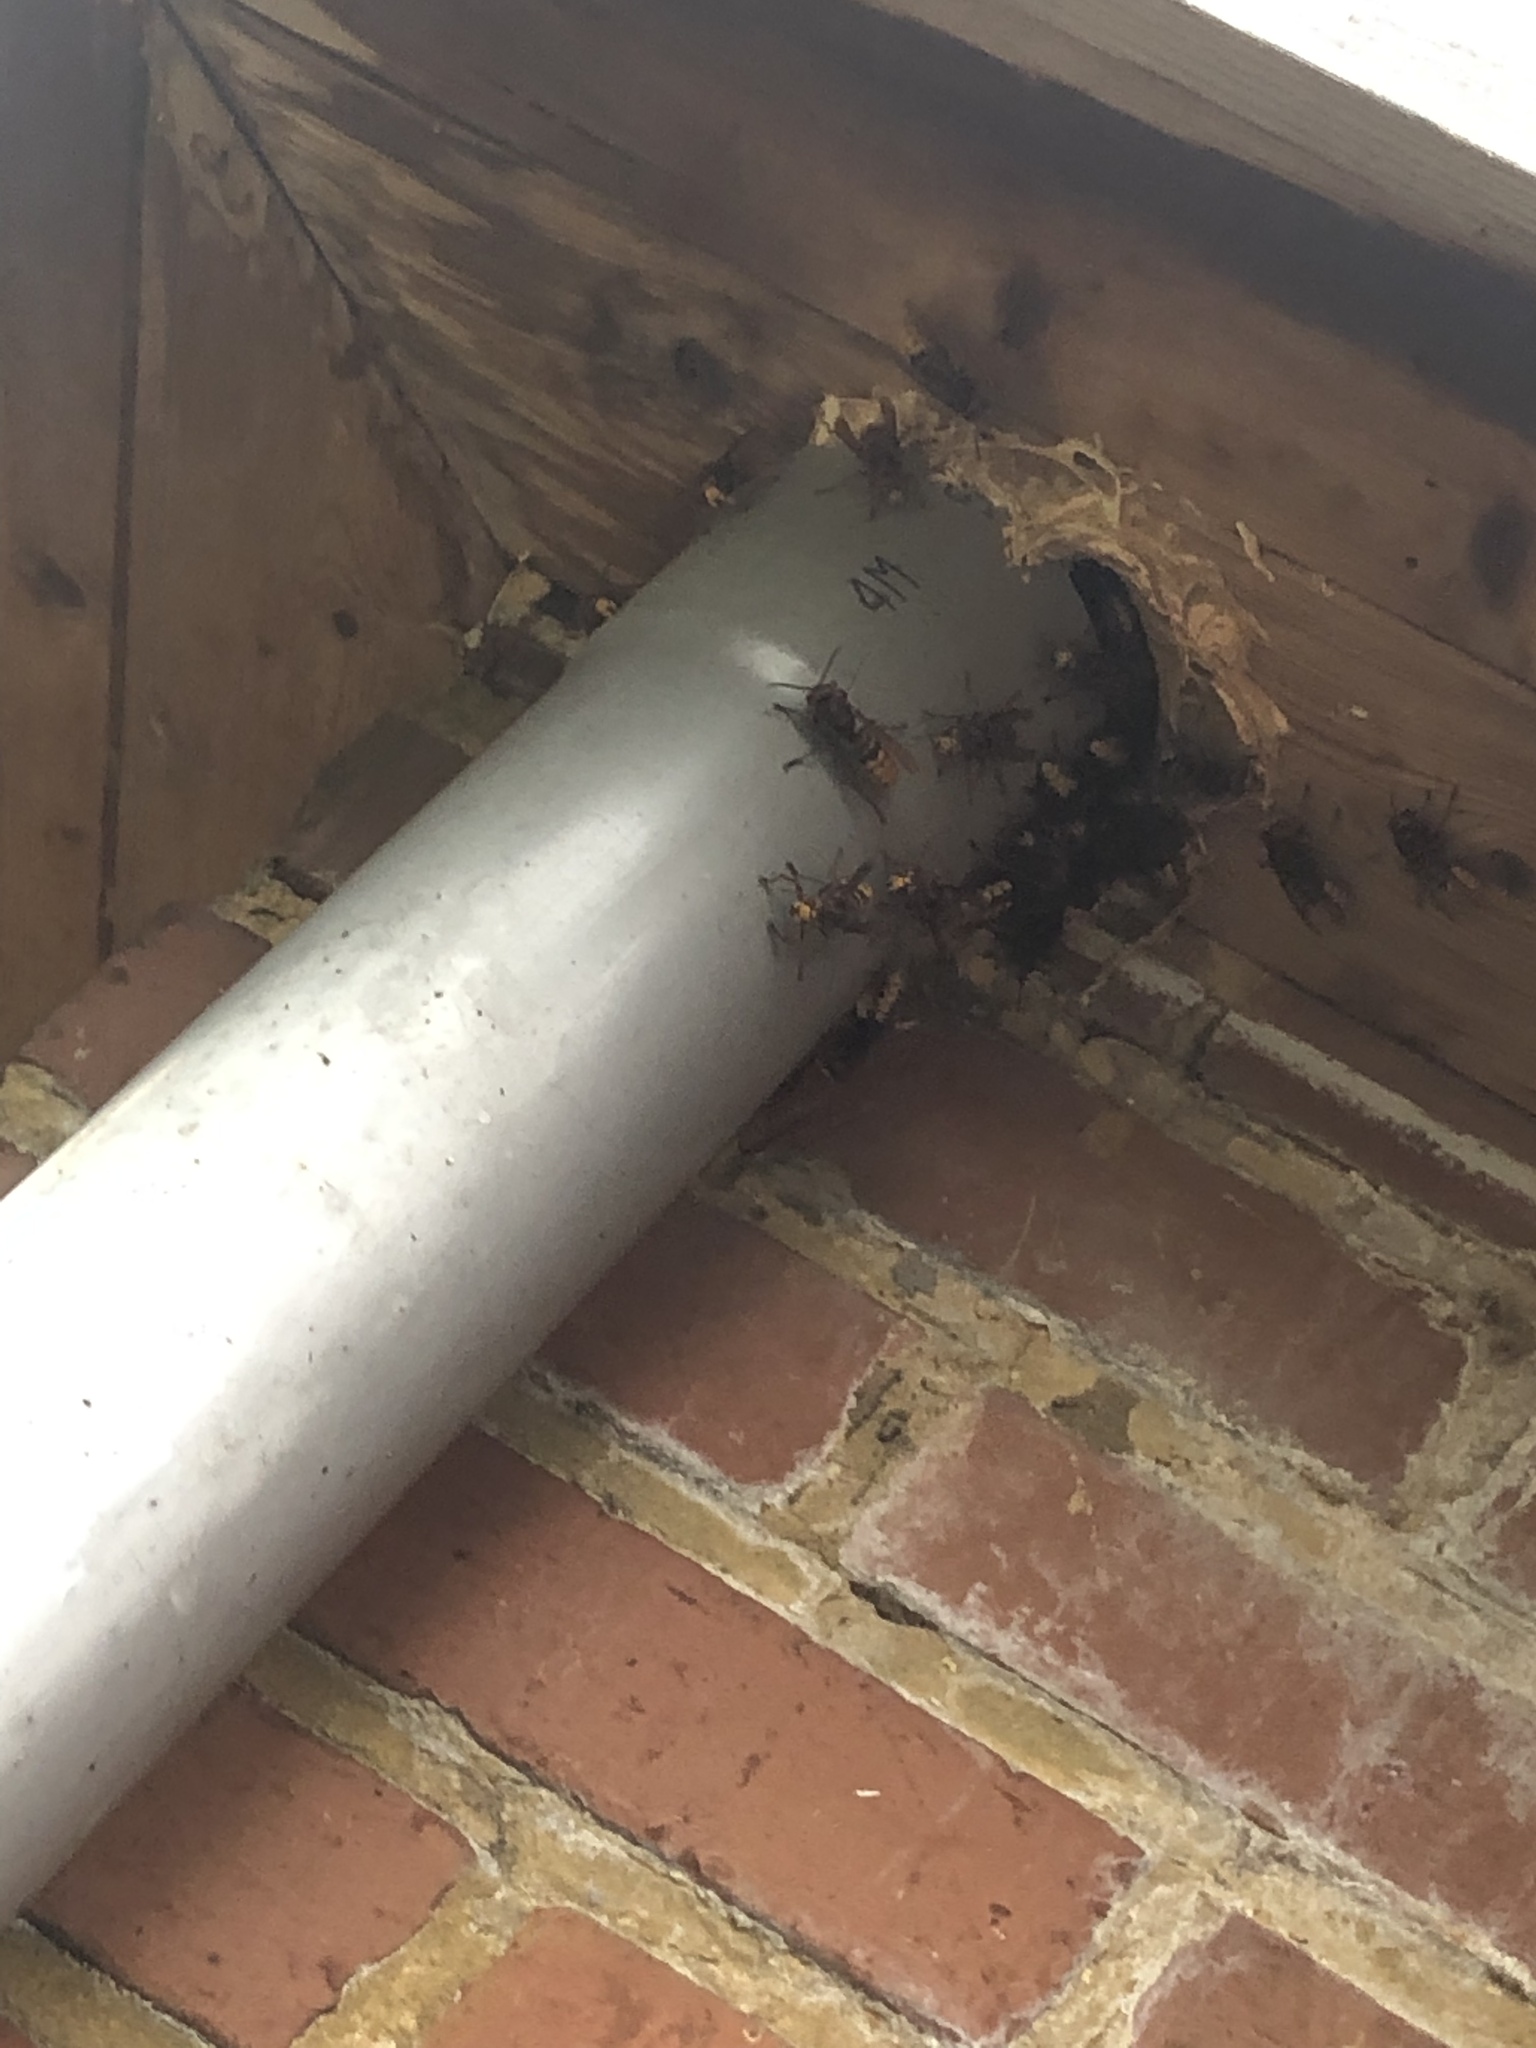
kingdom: Animalia
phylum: Arthropoda
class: Insecta
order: Hymenoptera
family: Vespidae
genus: Vespa
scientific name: Vespa crabro
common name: Hornet
